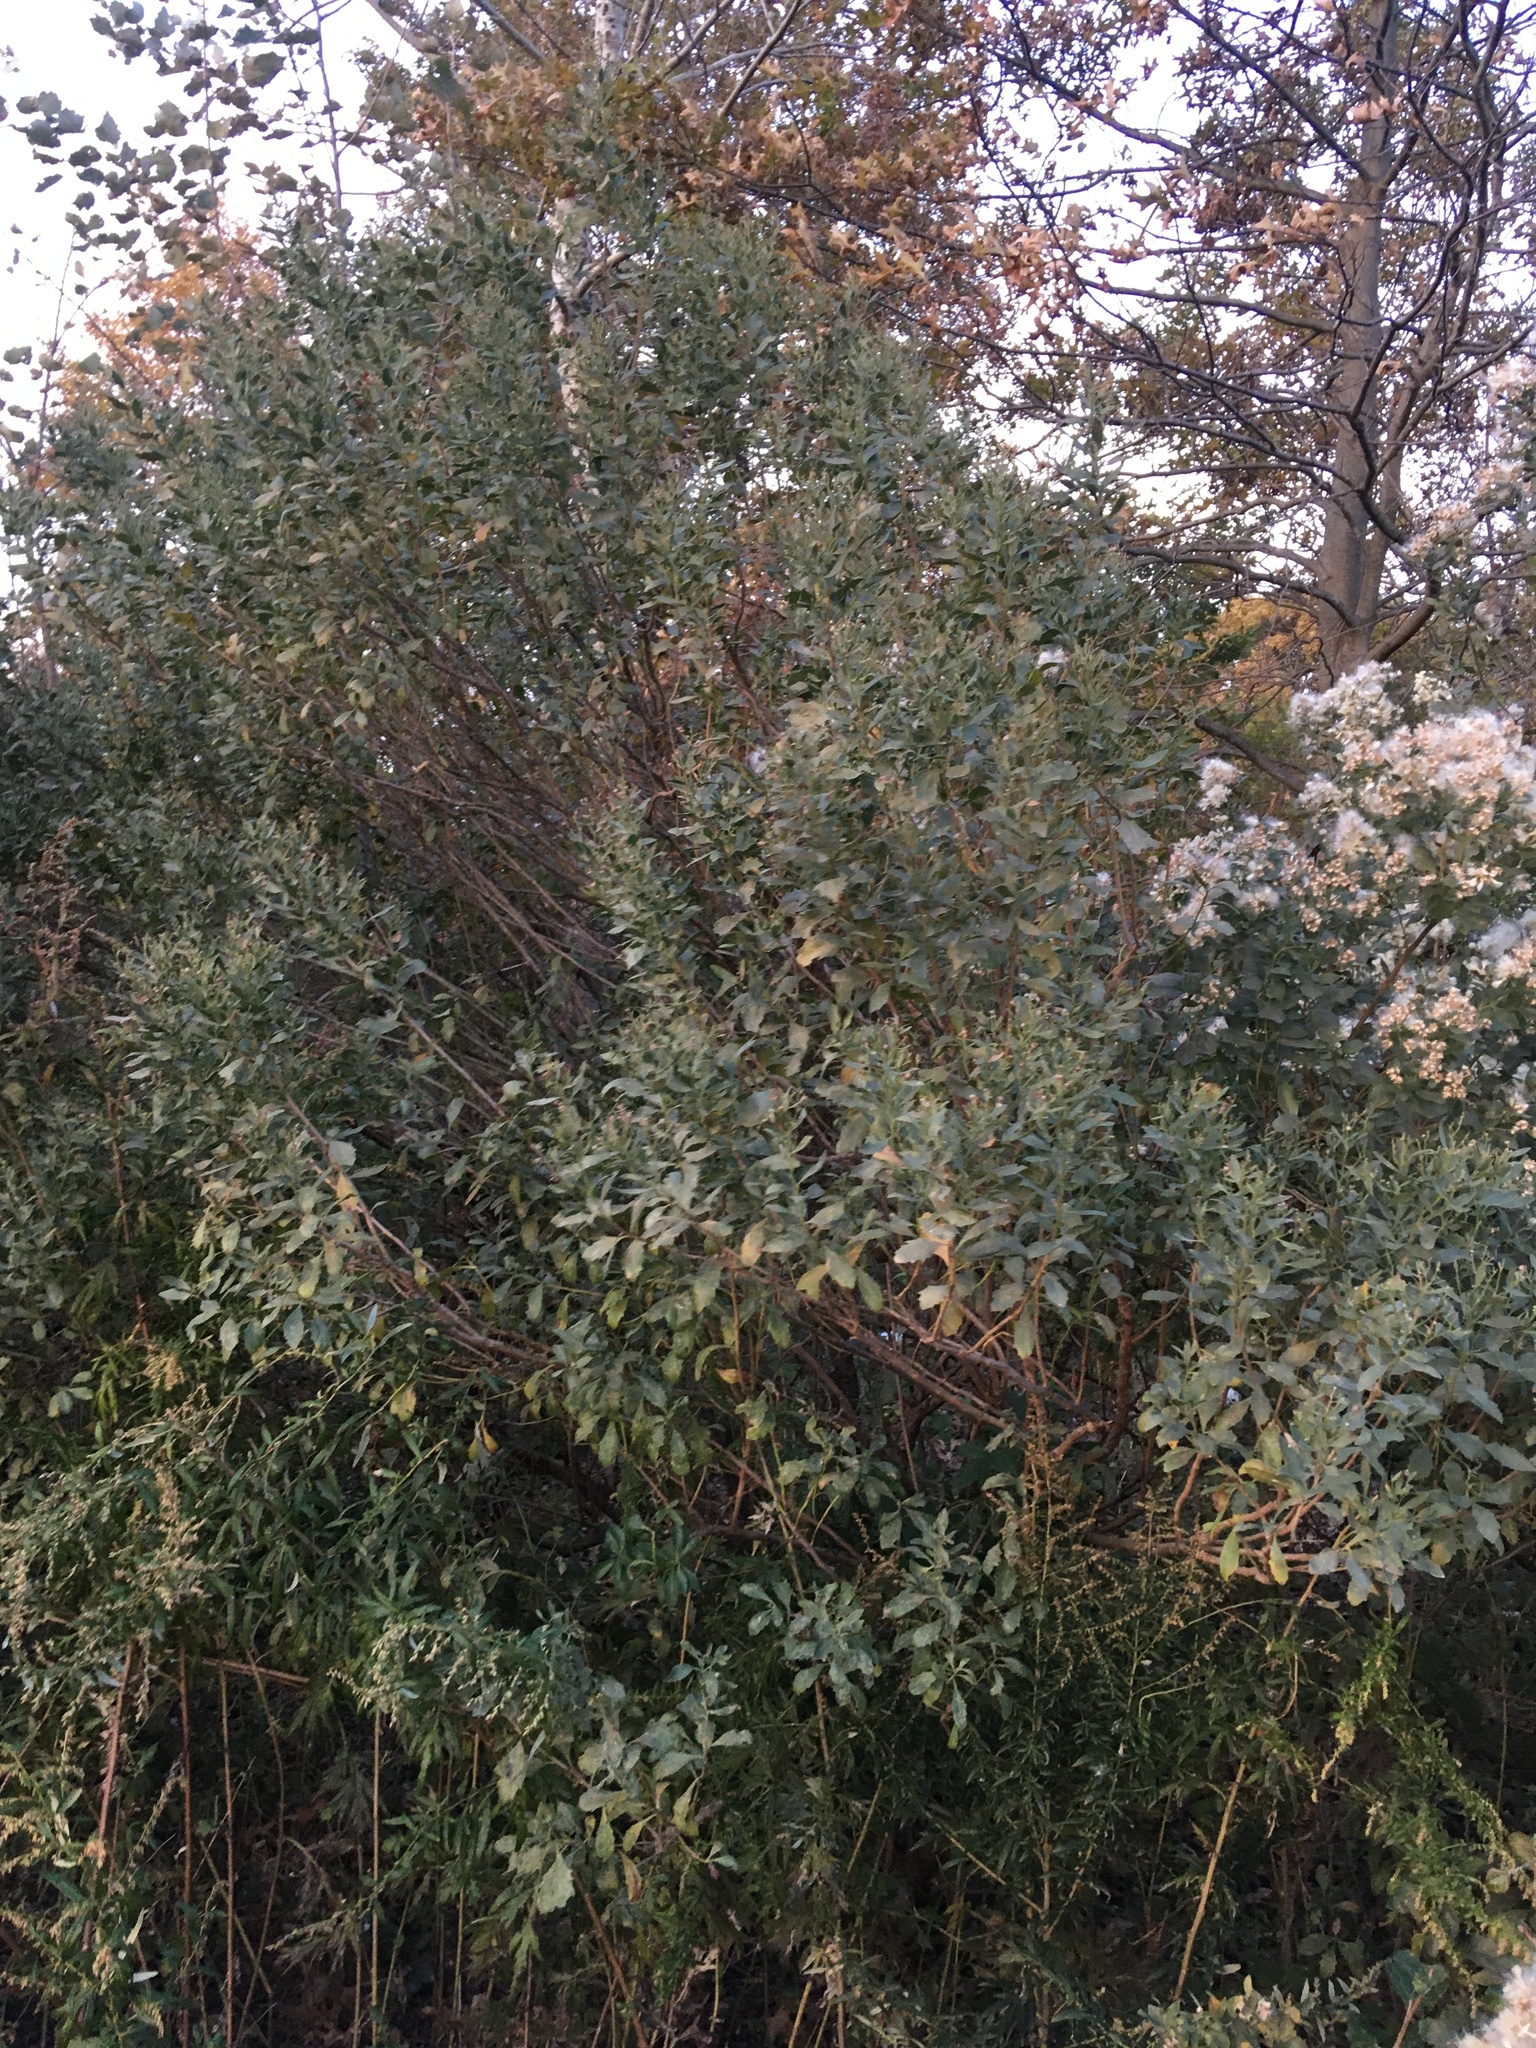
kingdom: Plantae
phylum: Tracheophyta
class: Magnoliopsida
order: Asterales
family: Asteraceae
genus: Baccharis
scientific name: Baccharis halimifolia
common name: Eastern baccharis
